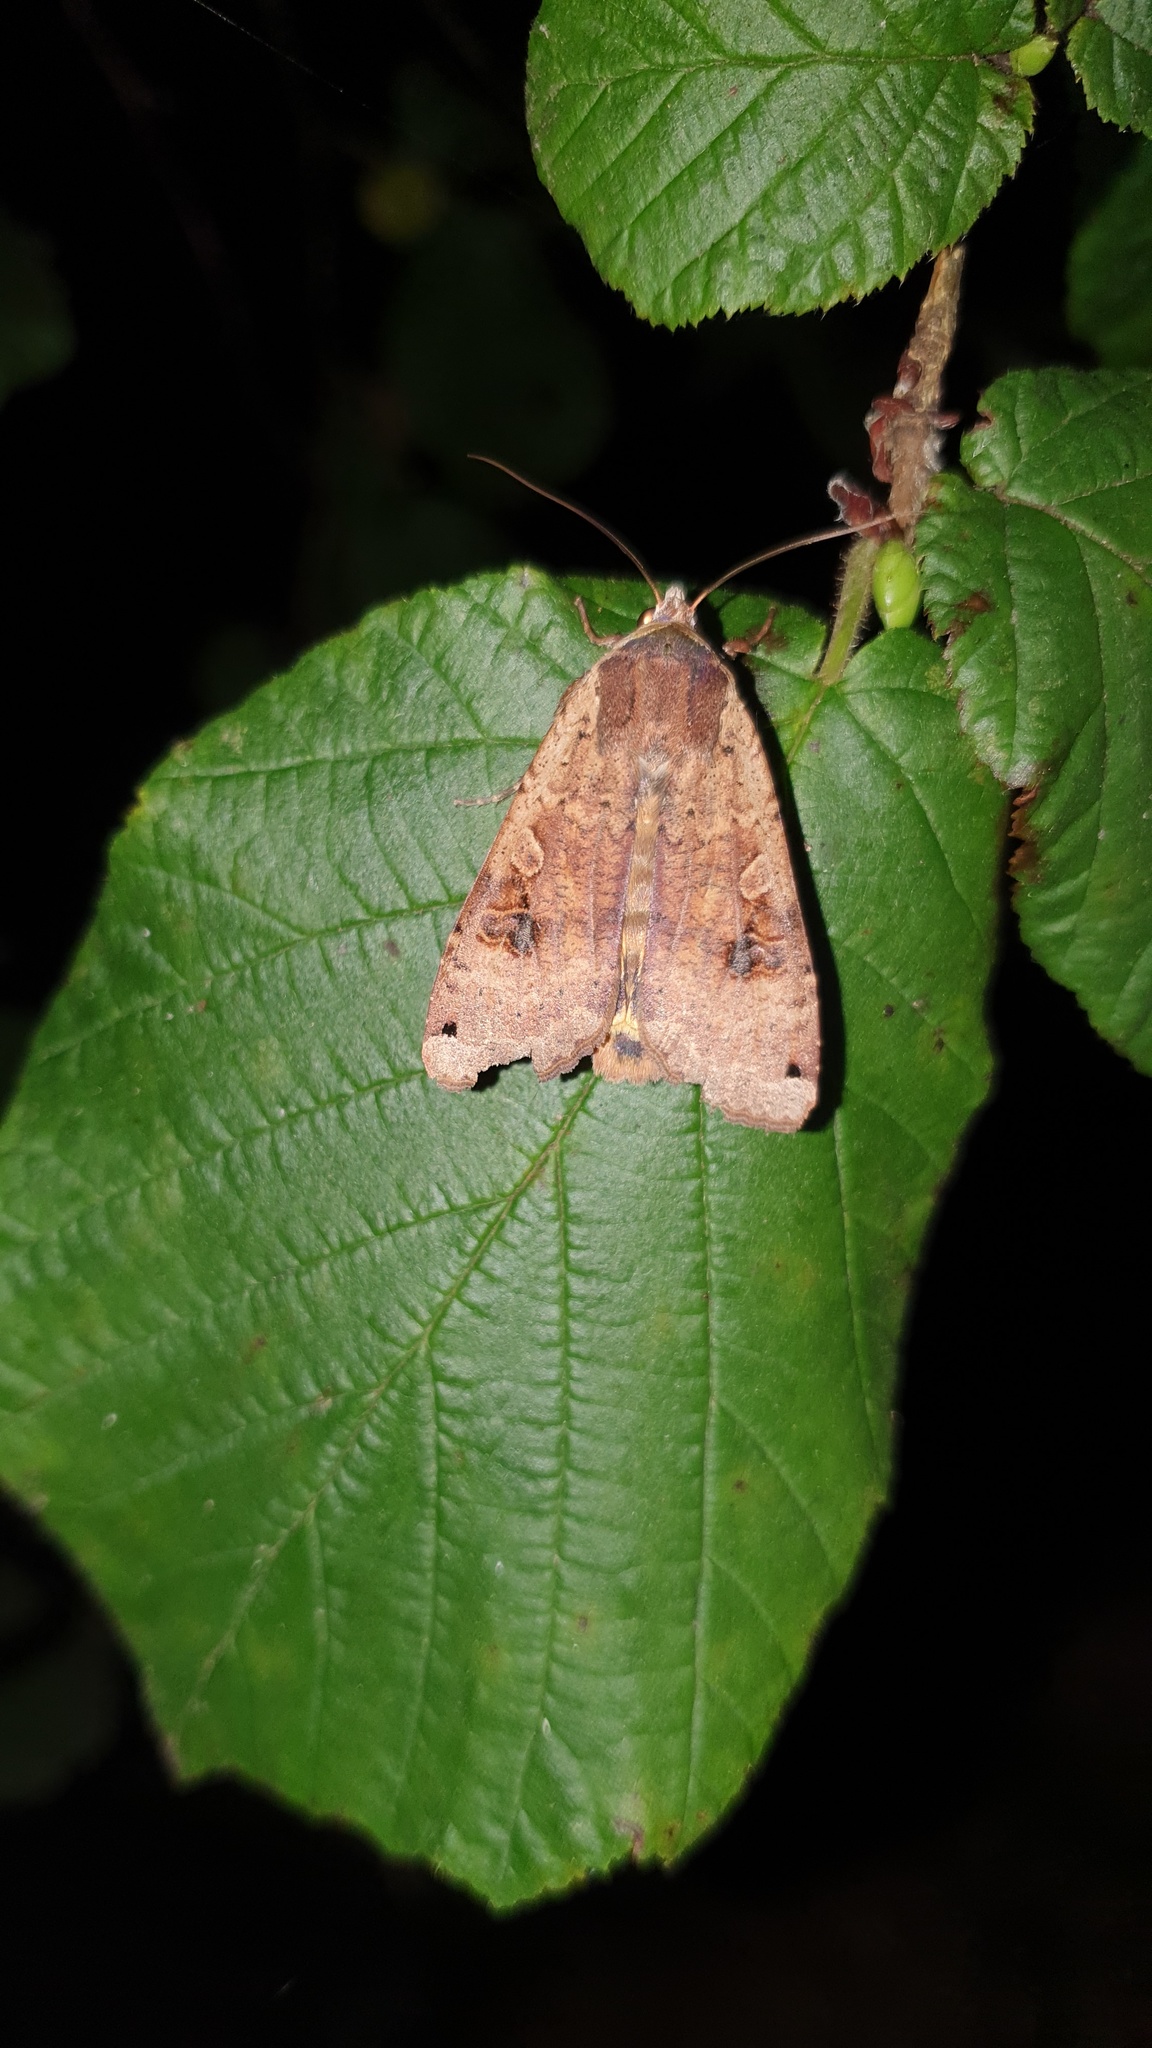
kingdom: Animalia
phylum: Arthropoda
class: Insecta
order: Lepidoptera
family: Noctuidae
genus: Noctua
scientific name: Noctua pronuba
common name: Large yellow underwing
